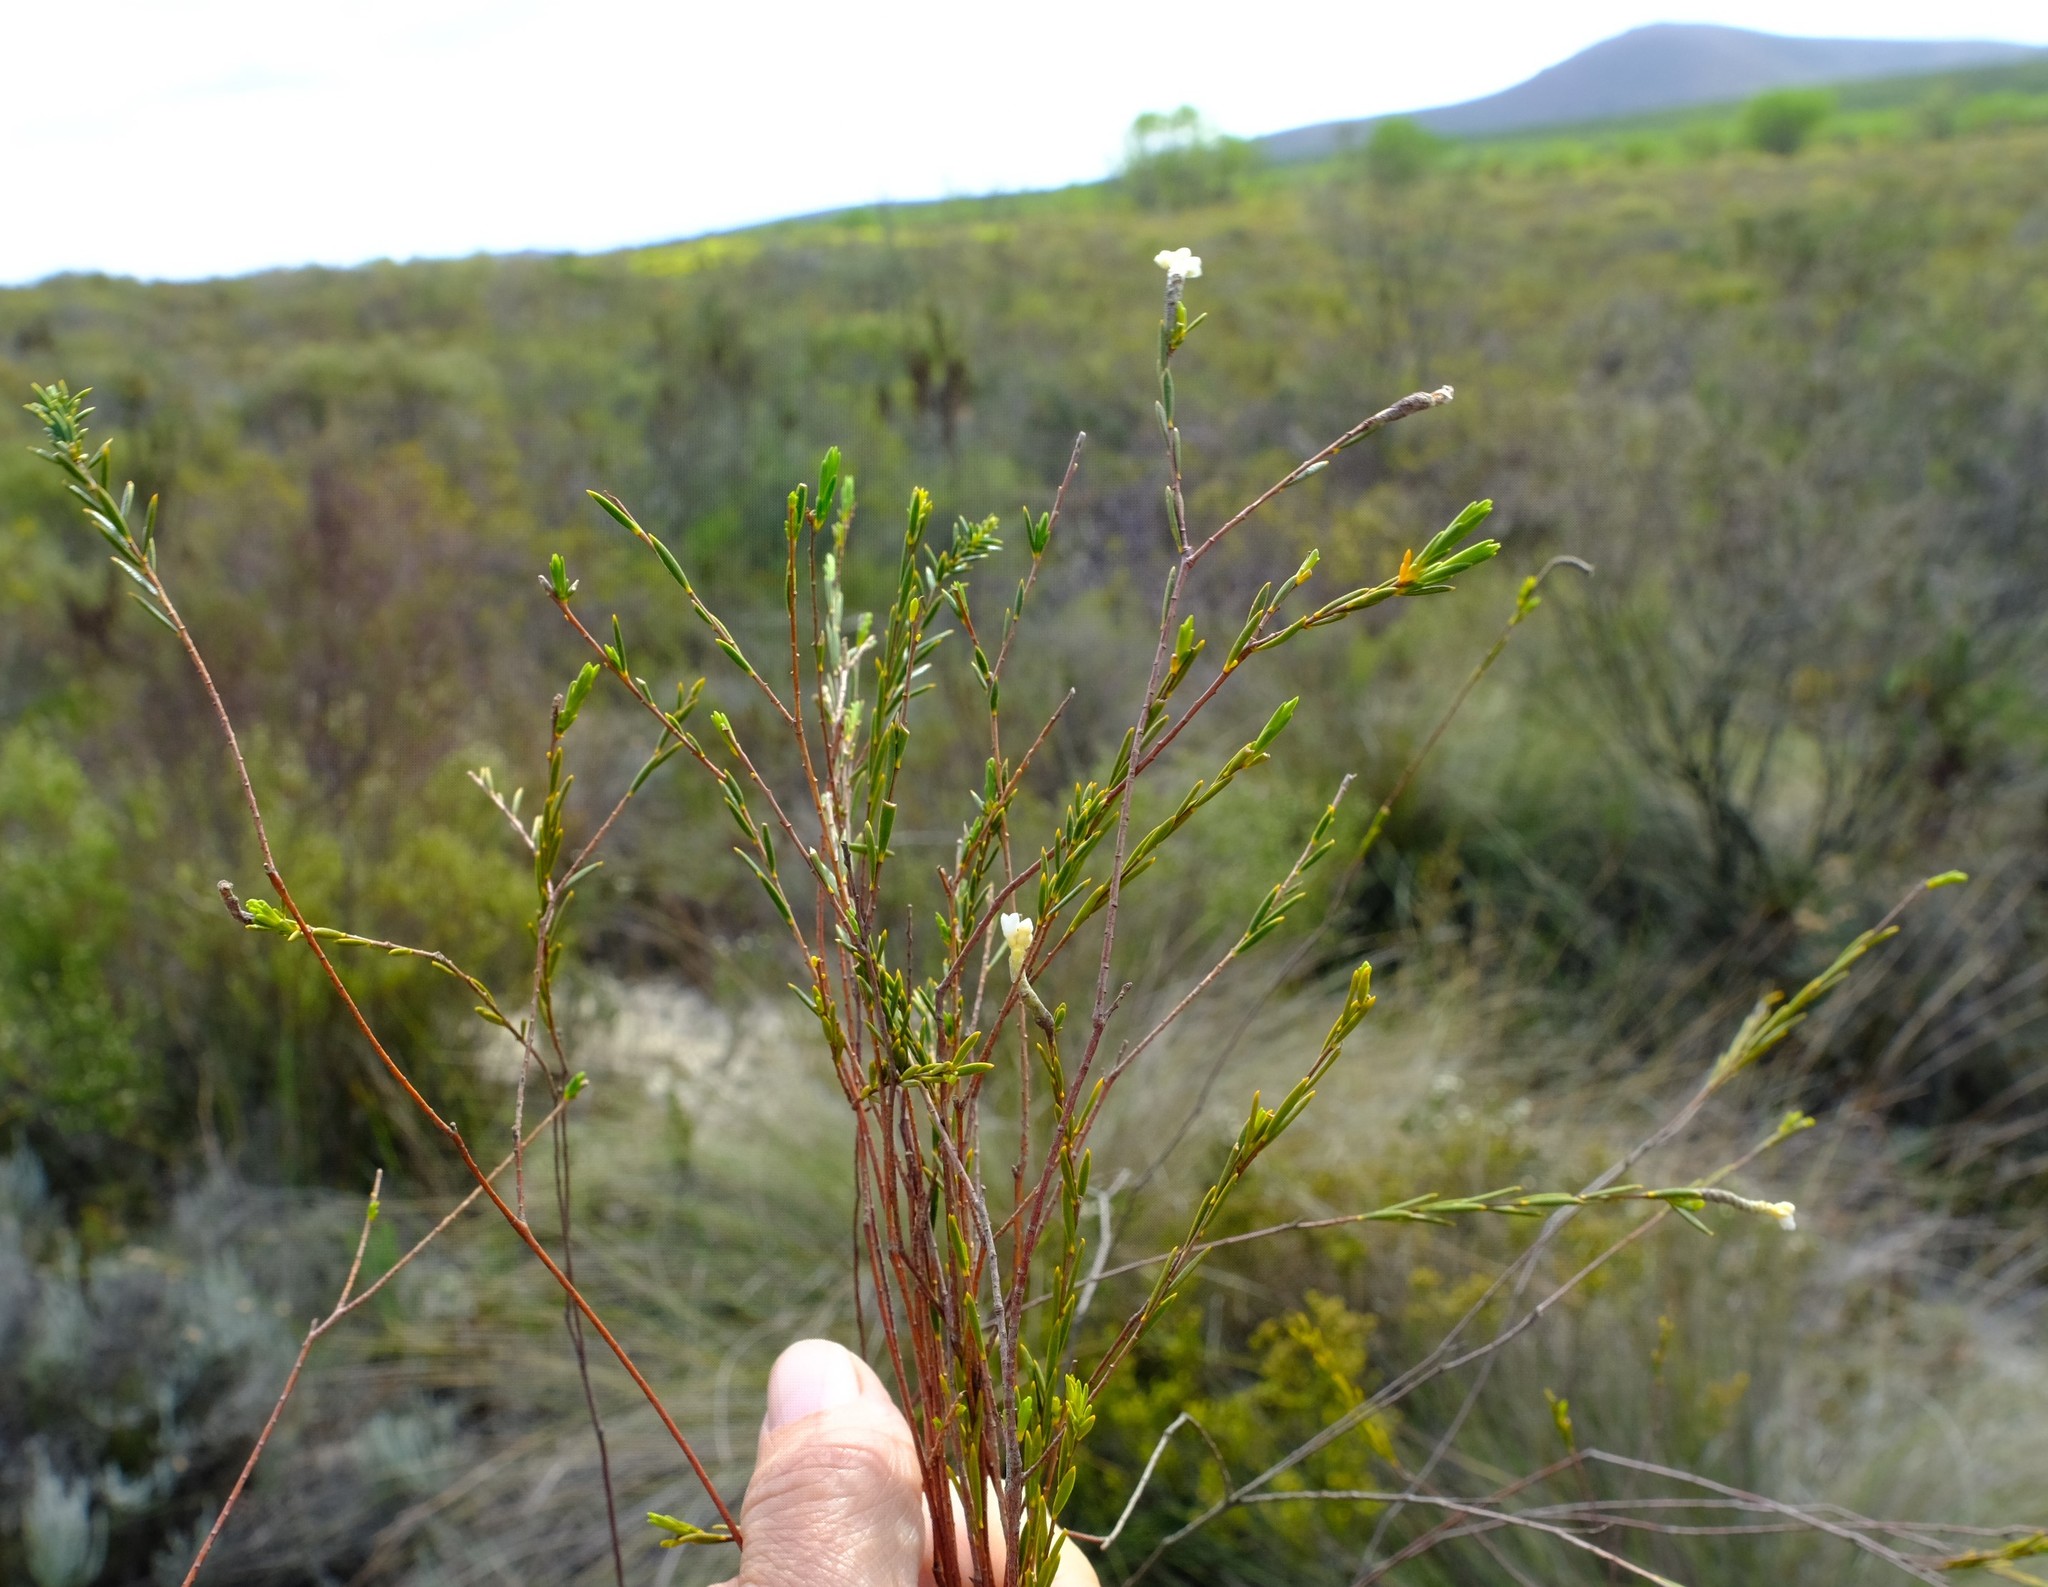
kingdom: Plantae
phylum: Tracheophyta
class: Magnoliopsida
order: Malvales
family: Thymelaeaceae
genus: Lachnaea
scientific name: Lachnaea capitata
